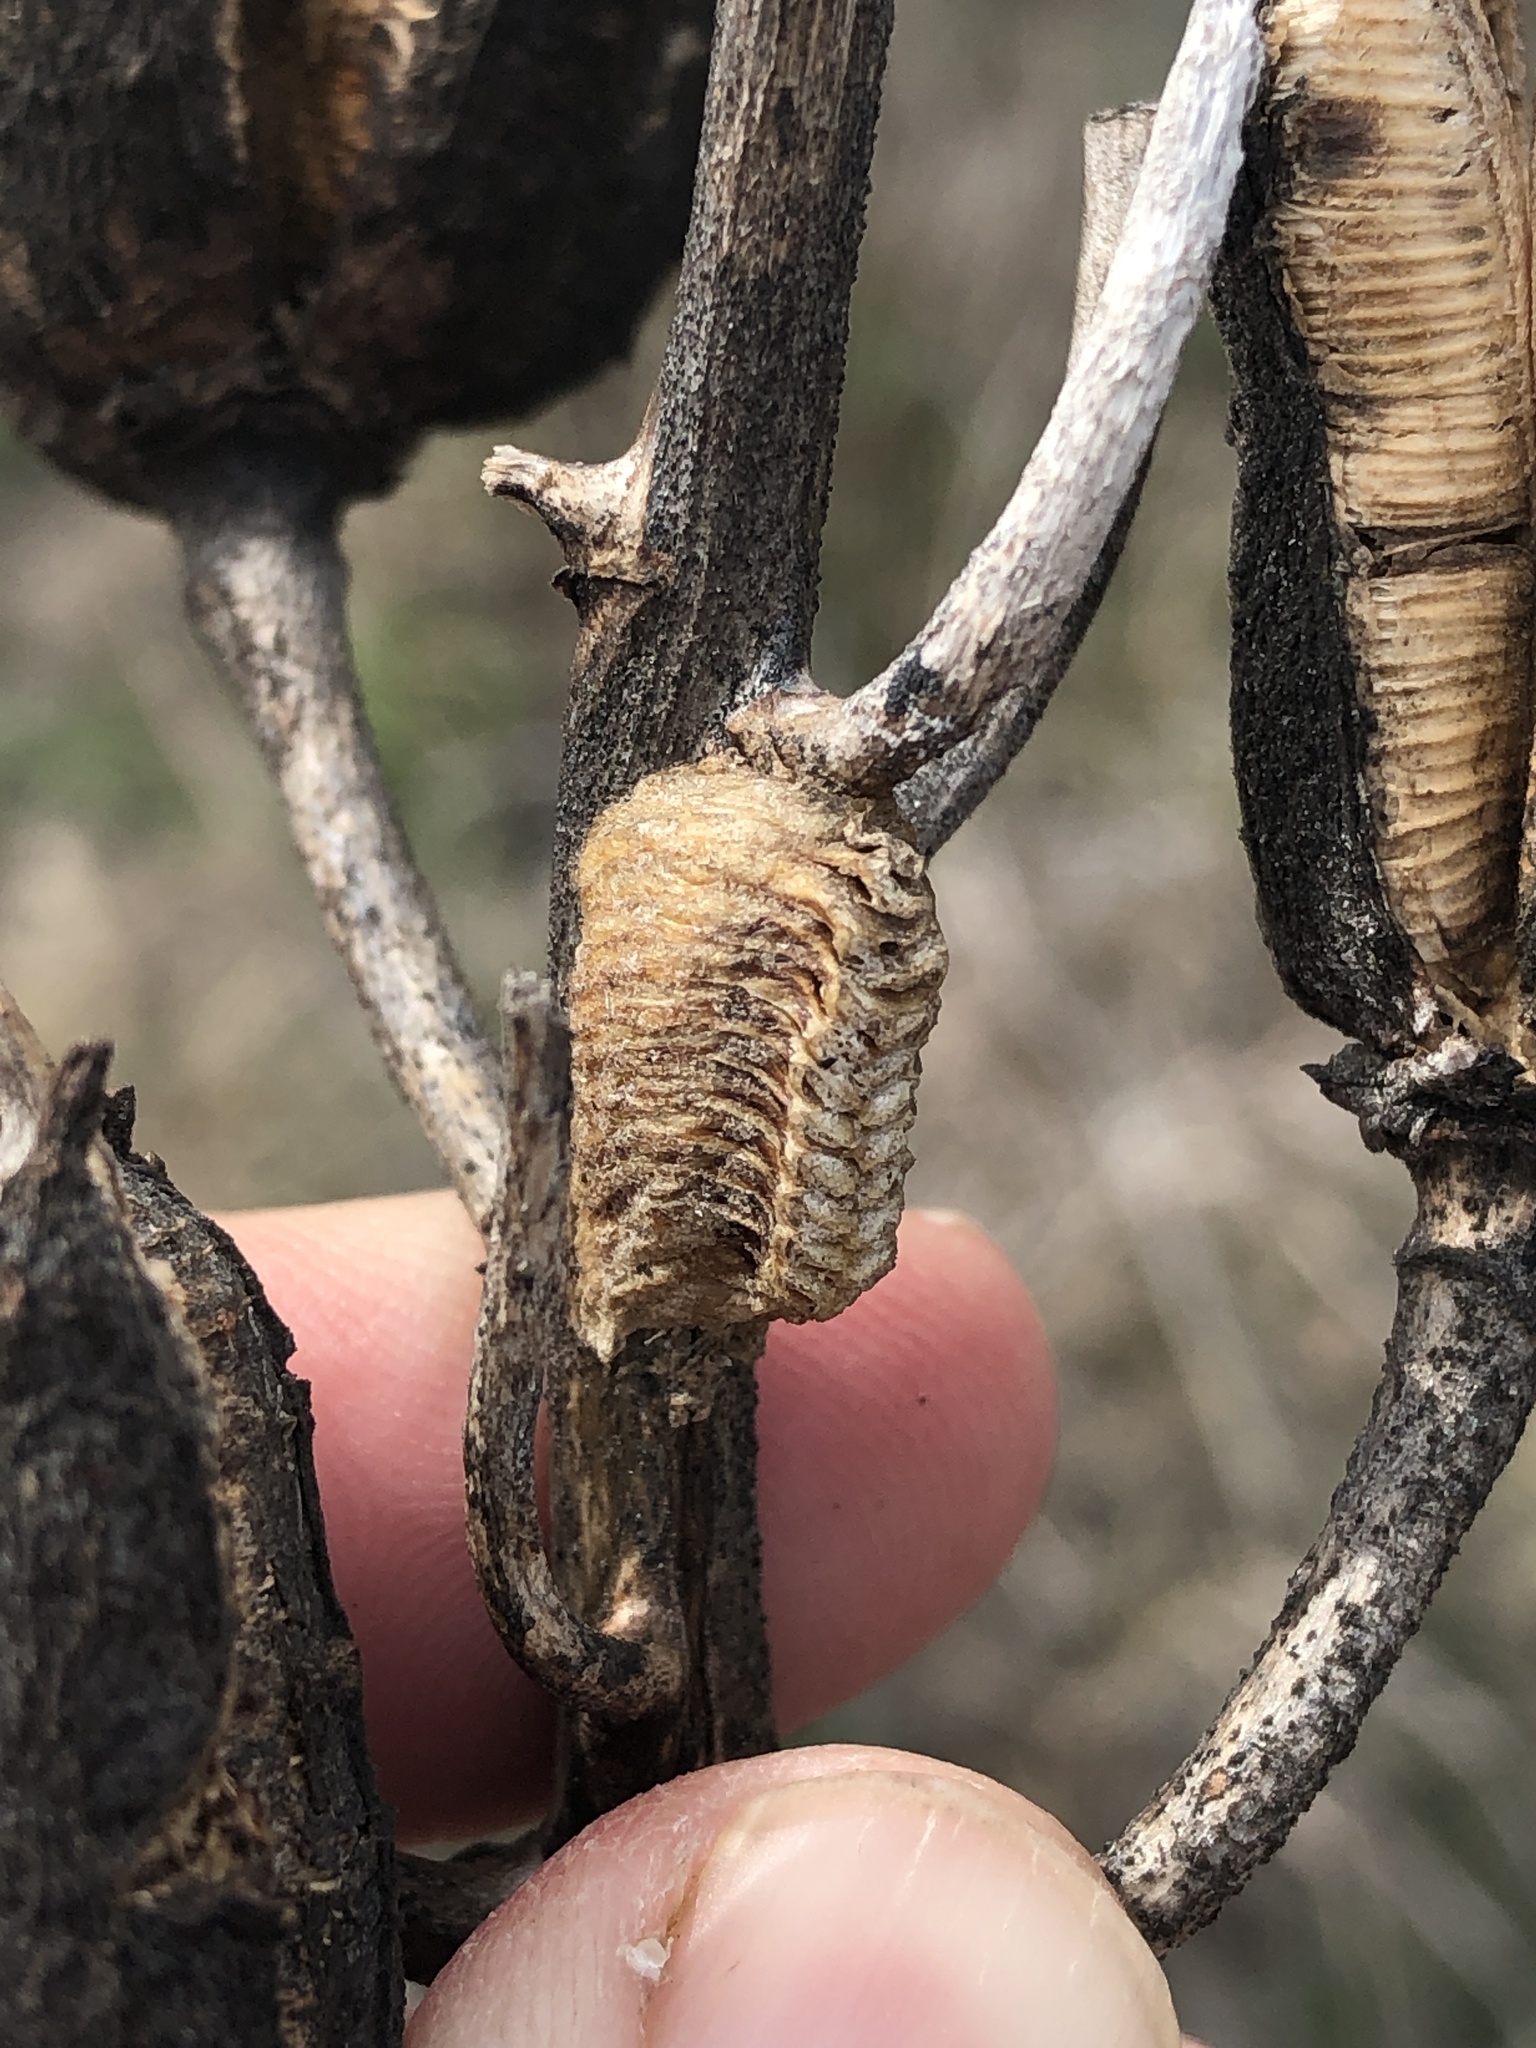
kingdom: Animalia
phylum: Arthropoda
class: Insecta
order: Mantodea
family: Mantidae
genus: Stagmomantis
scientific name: Stagmomantis carolina
